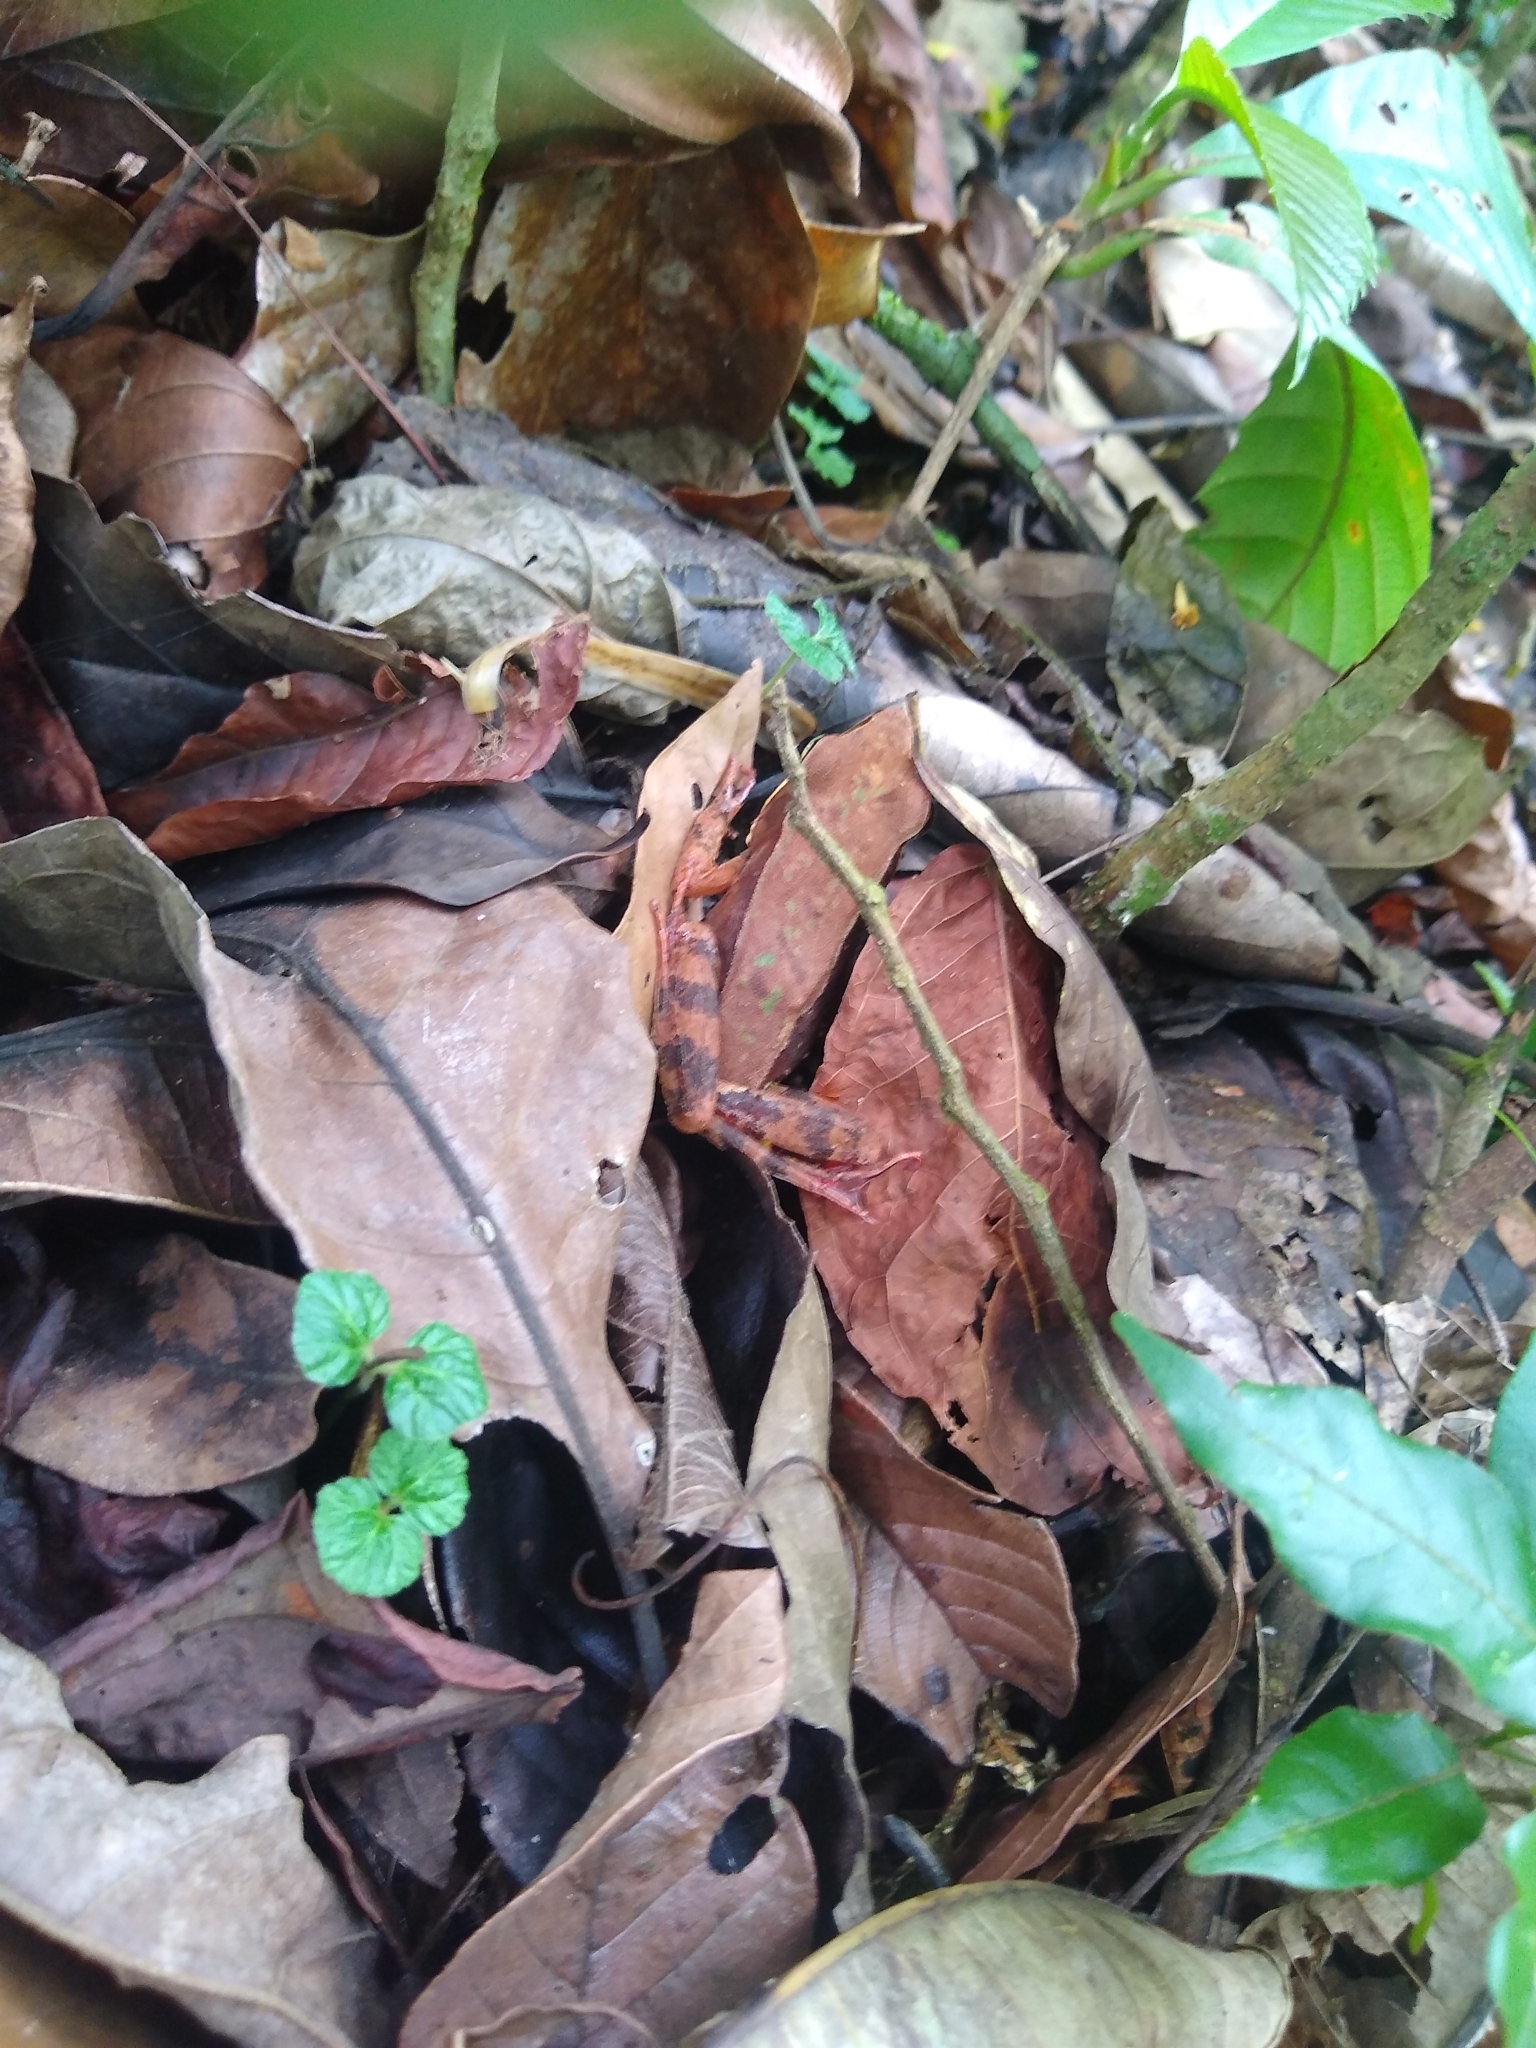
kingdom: Animalia
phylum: Chordata
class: Amphibia
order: Anura
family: Ranidae
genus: Lithobates
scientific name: Lithobates warszewitschii
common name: Warszewitsch's frog
